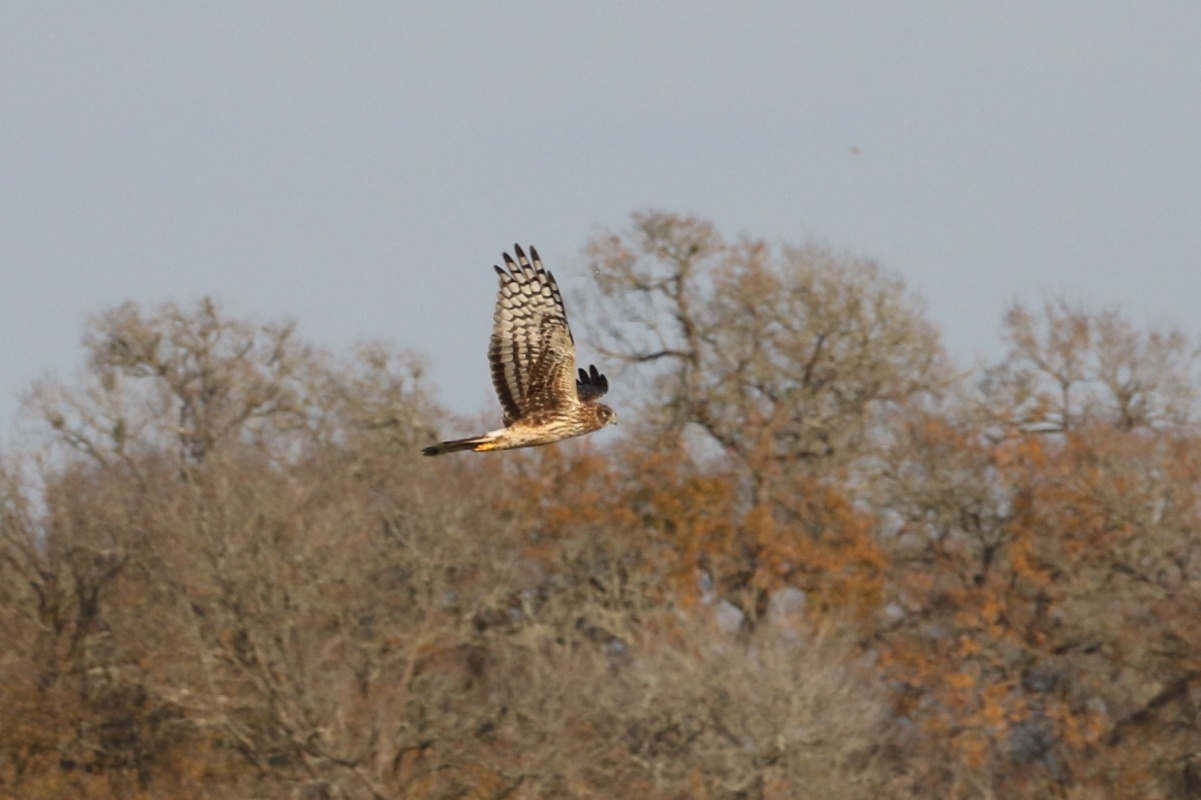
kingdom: Animalia
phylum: Chordata
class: Aves
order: Accipitriformes
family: Accipitridae
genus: Circus
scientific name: Circus cyaneus
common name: Hen harrier
